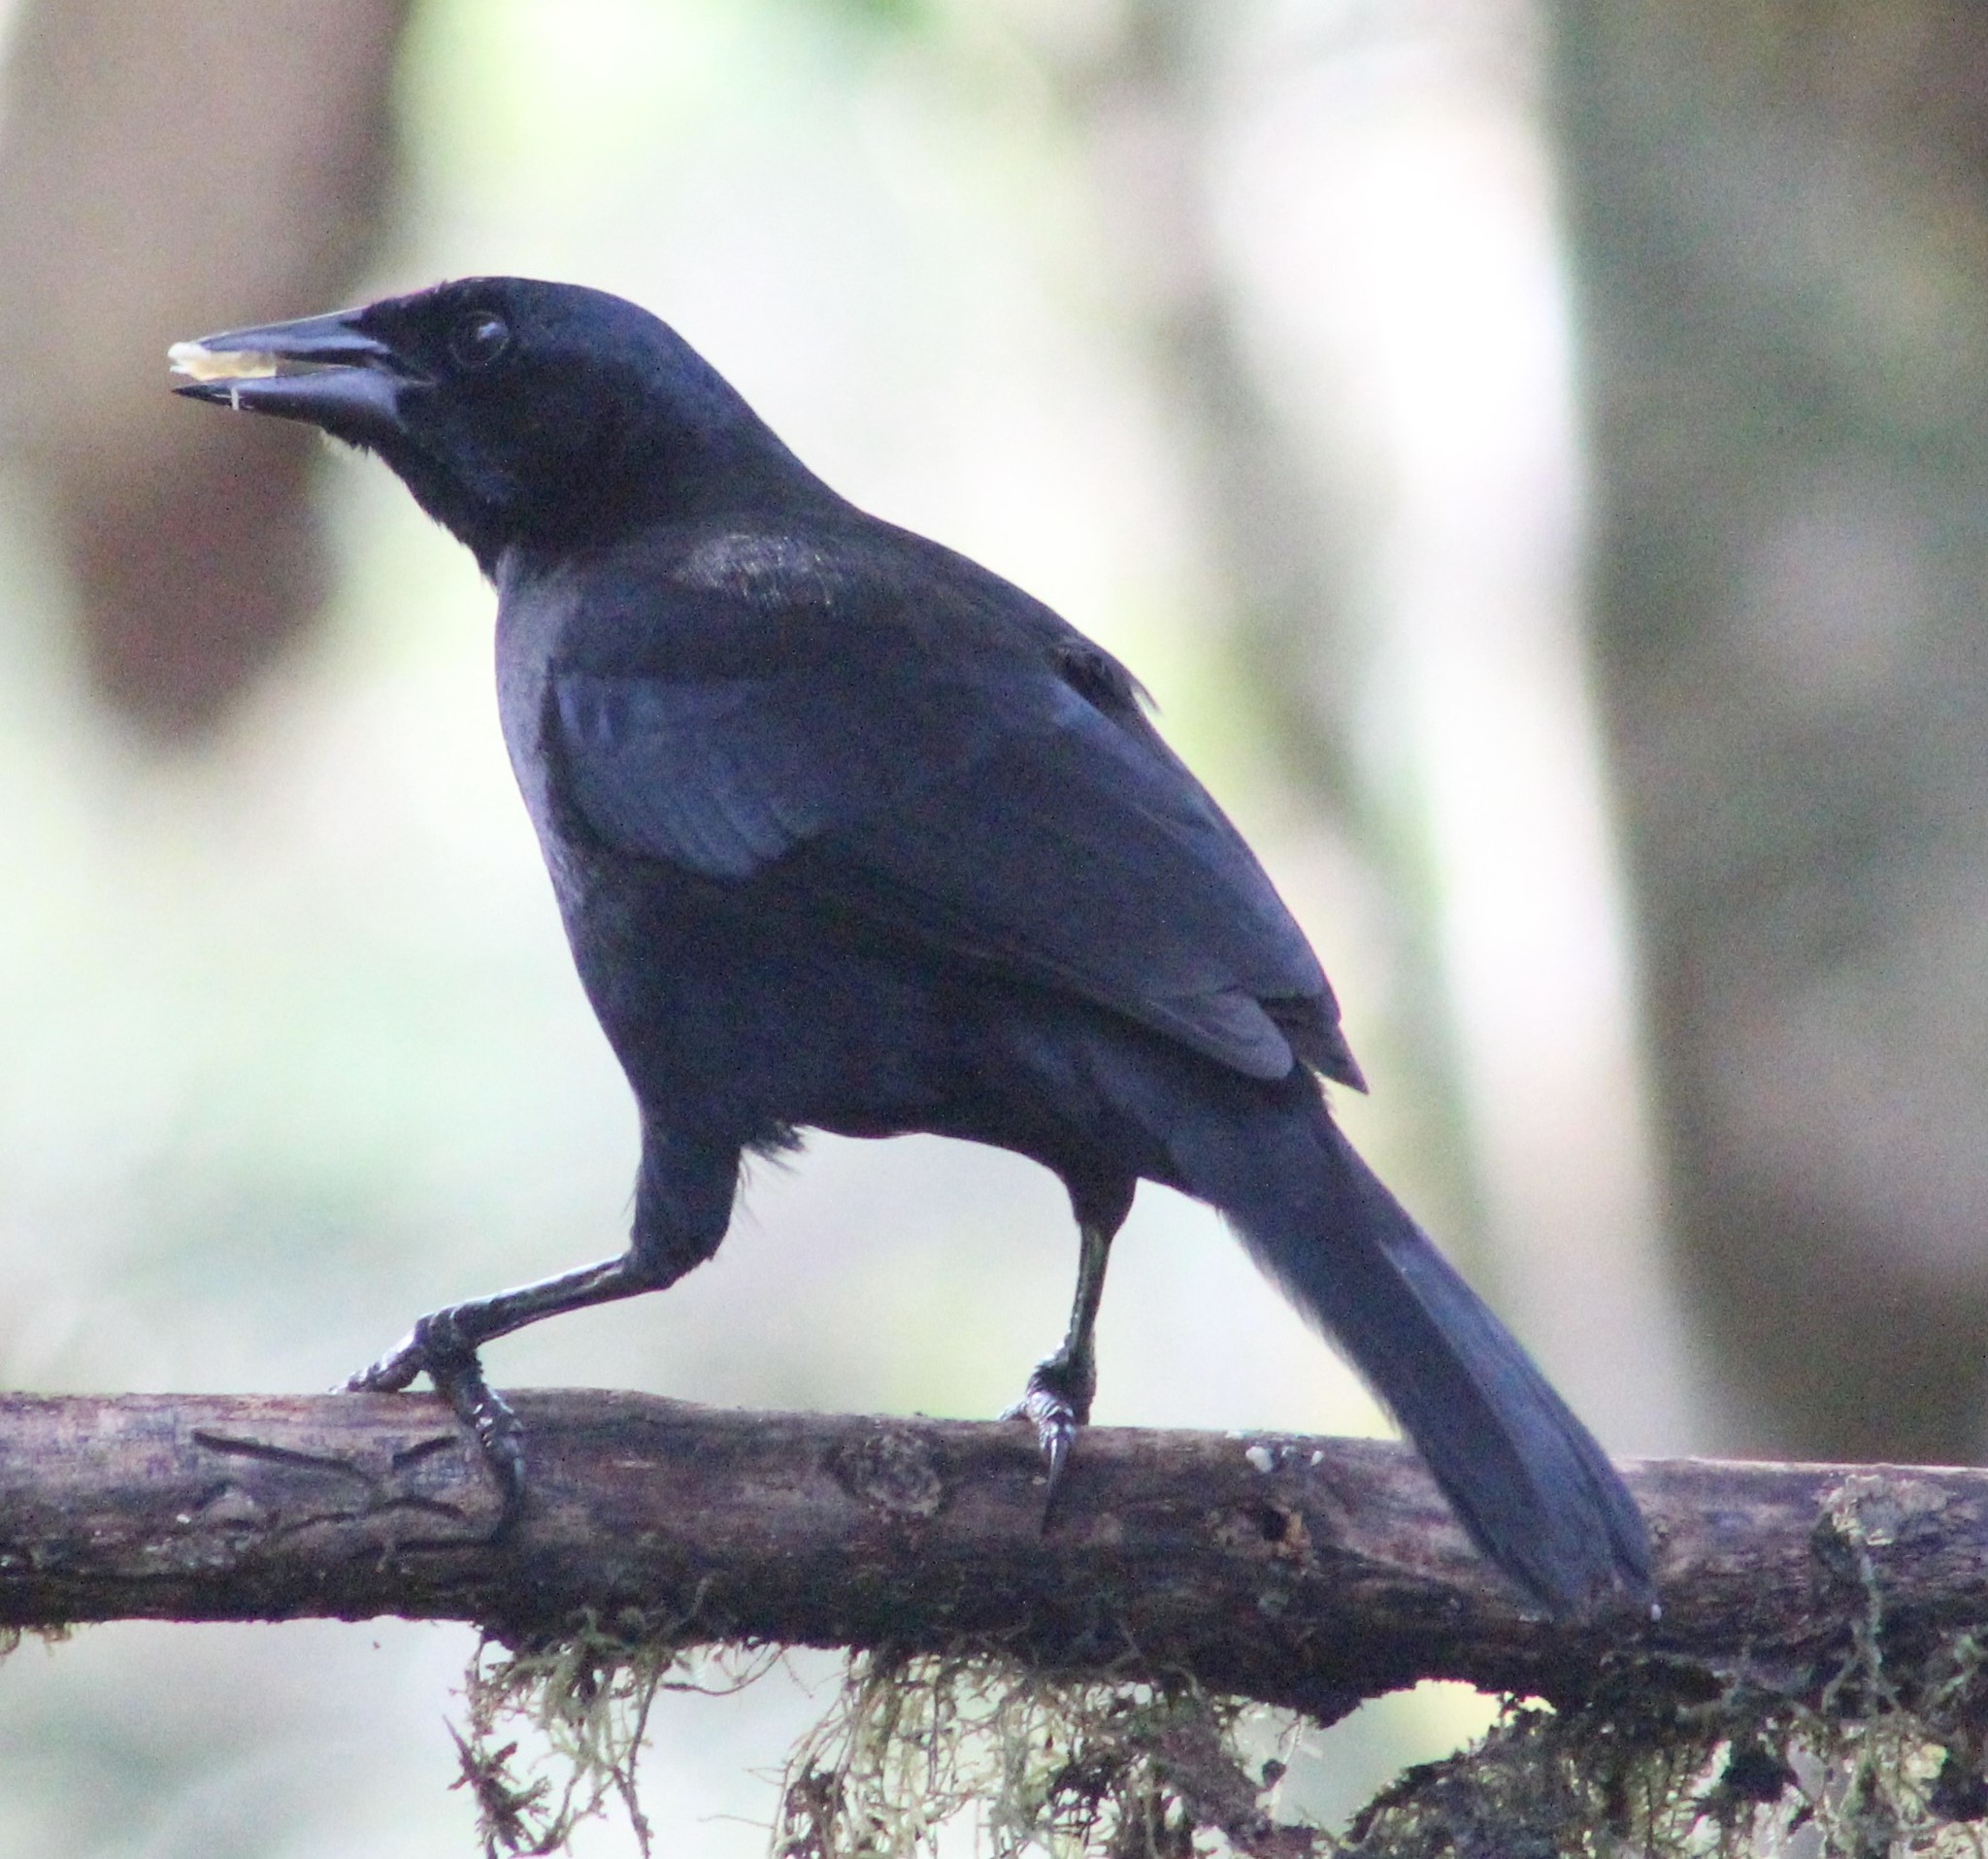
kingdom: Animalia
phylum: Chordata
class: Aves
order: Passeriformes
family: Icteridae
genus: Dives
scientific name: Dives warczewiczi
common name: Scrub blackbird
